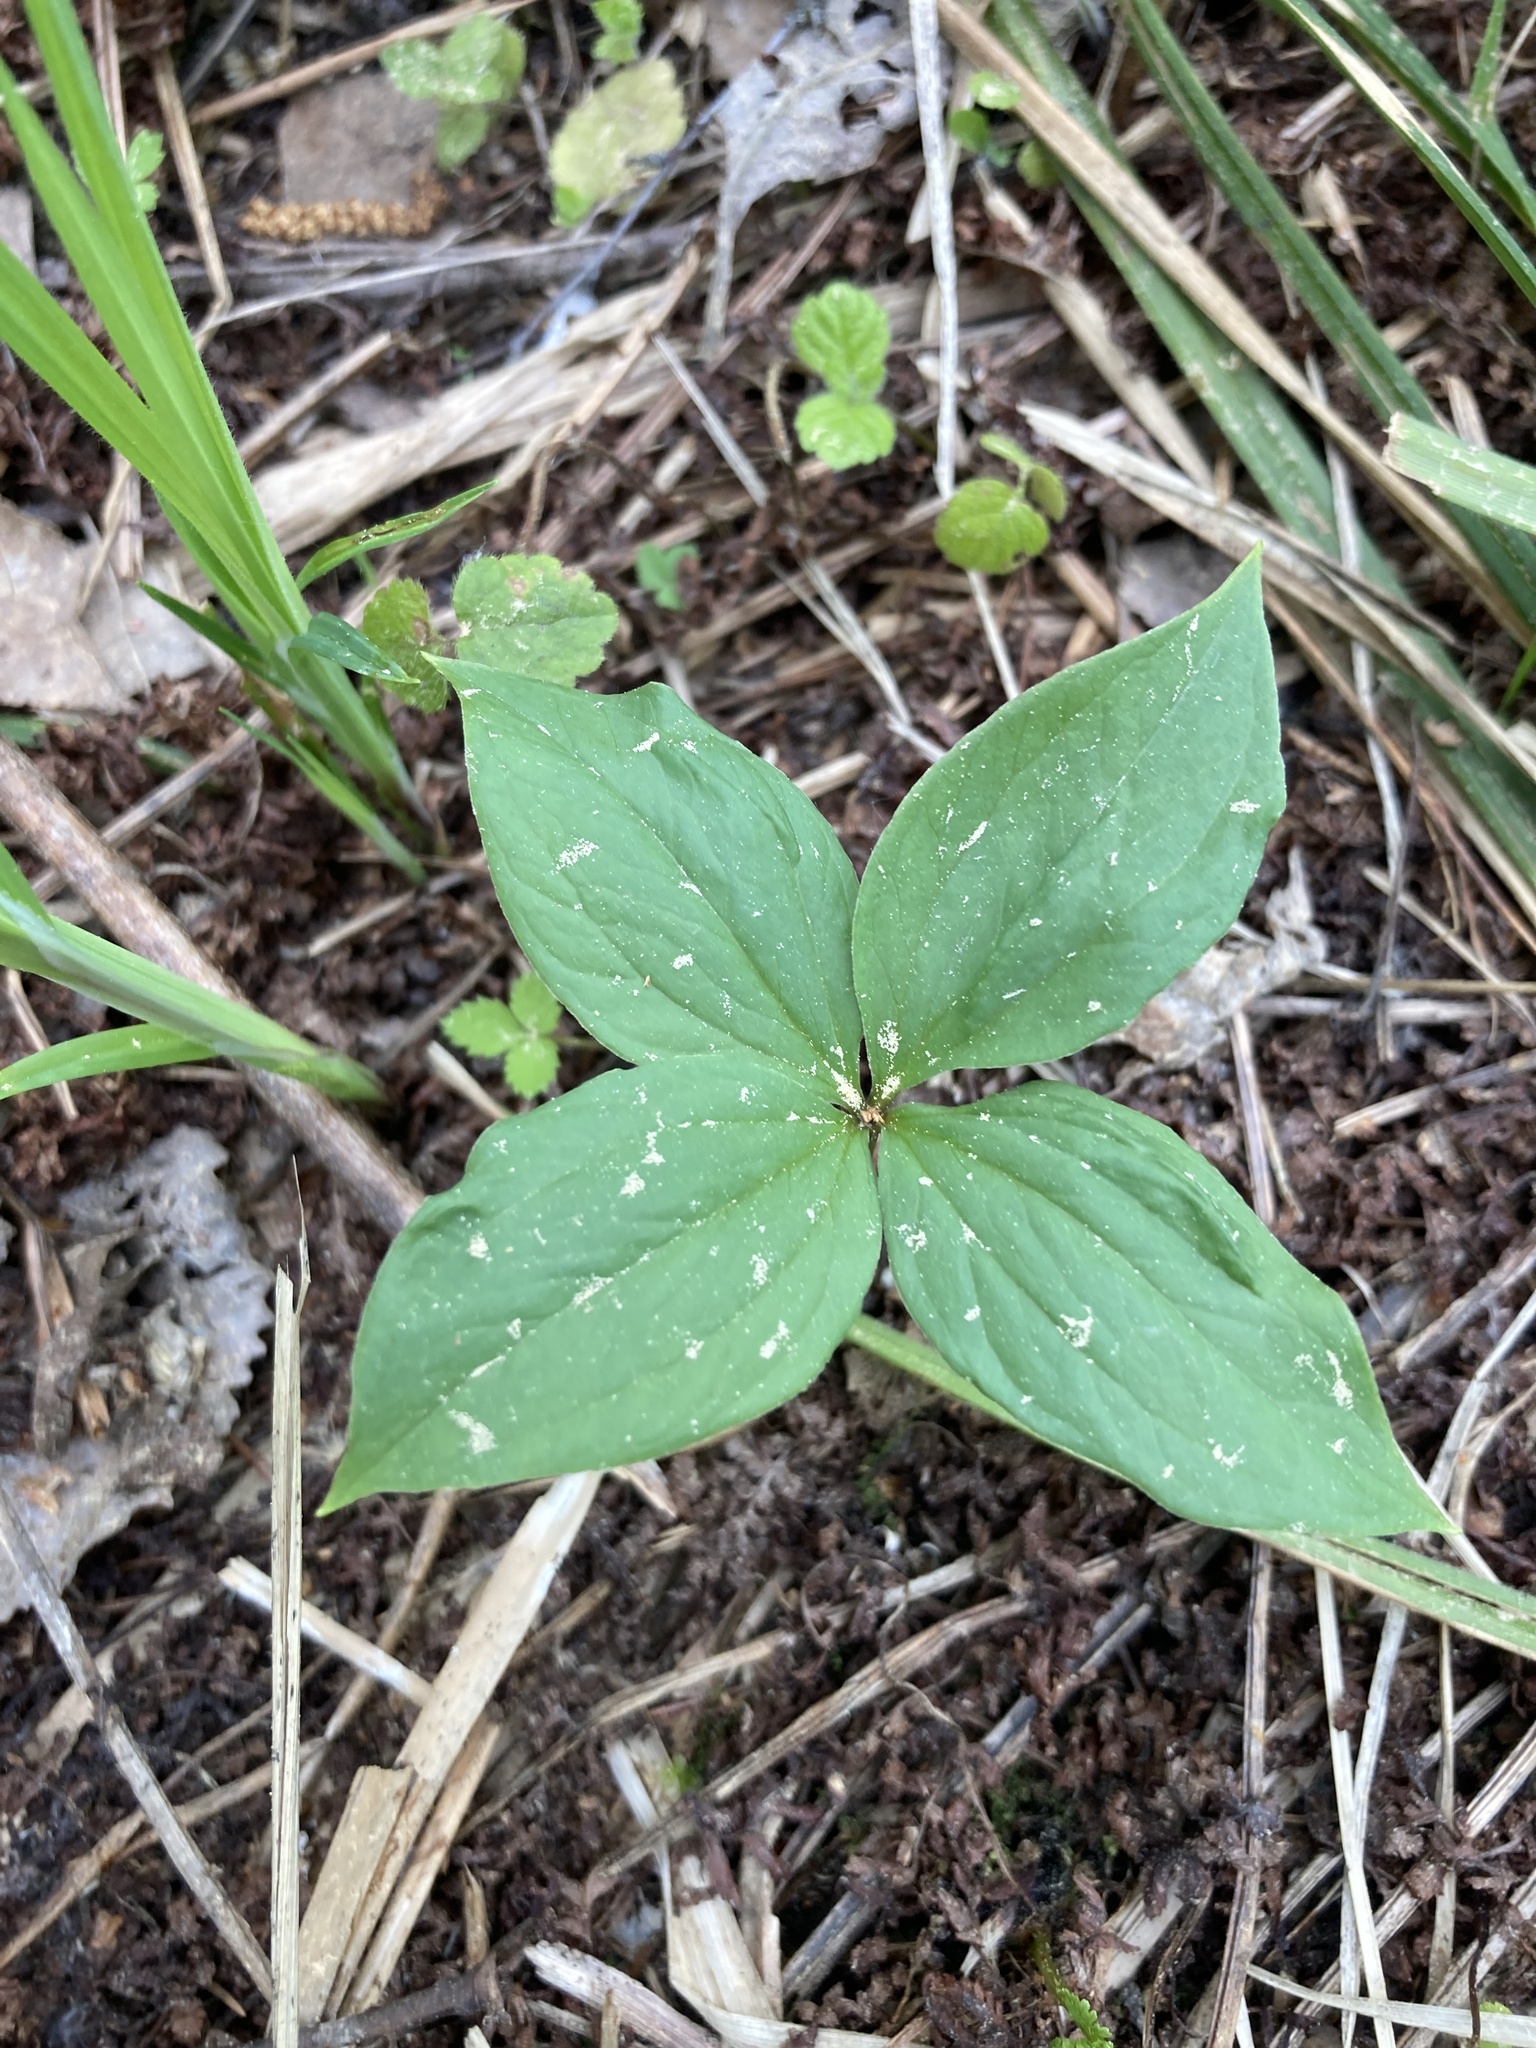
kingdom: Plantae
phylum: Tracheophyta
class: Liliopsida
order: Liliales
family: Melanthiaceae
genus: Paris
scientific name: Paris quadrifolia
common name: Herb-paris
